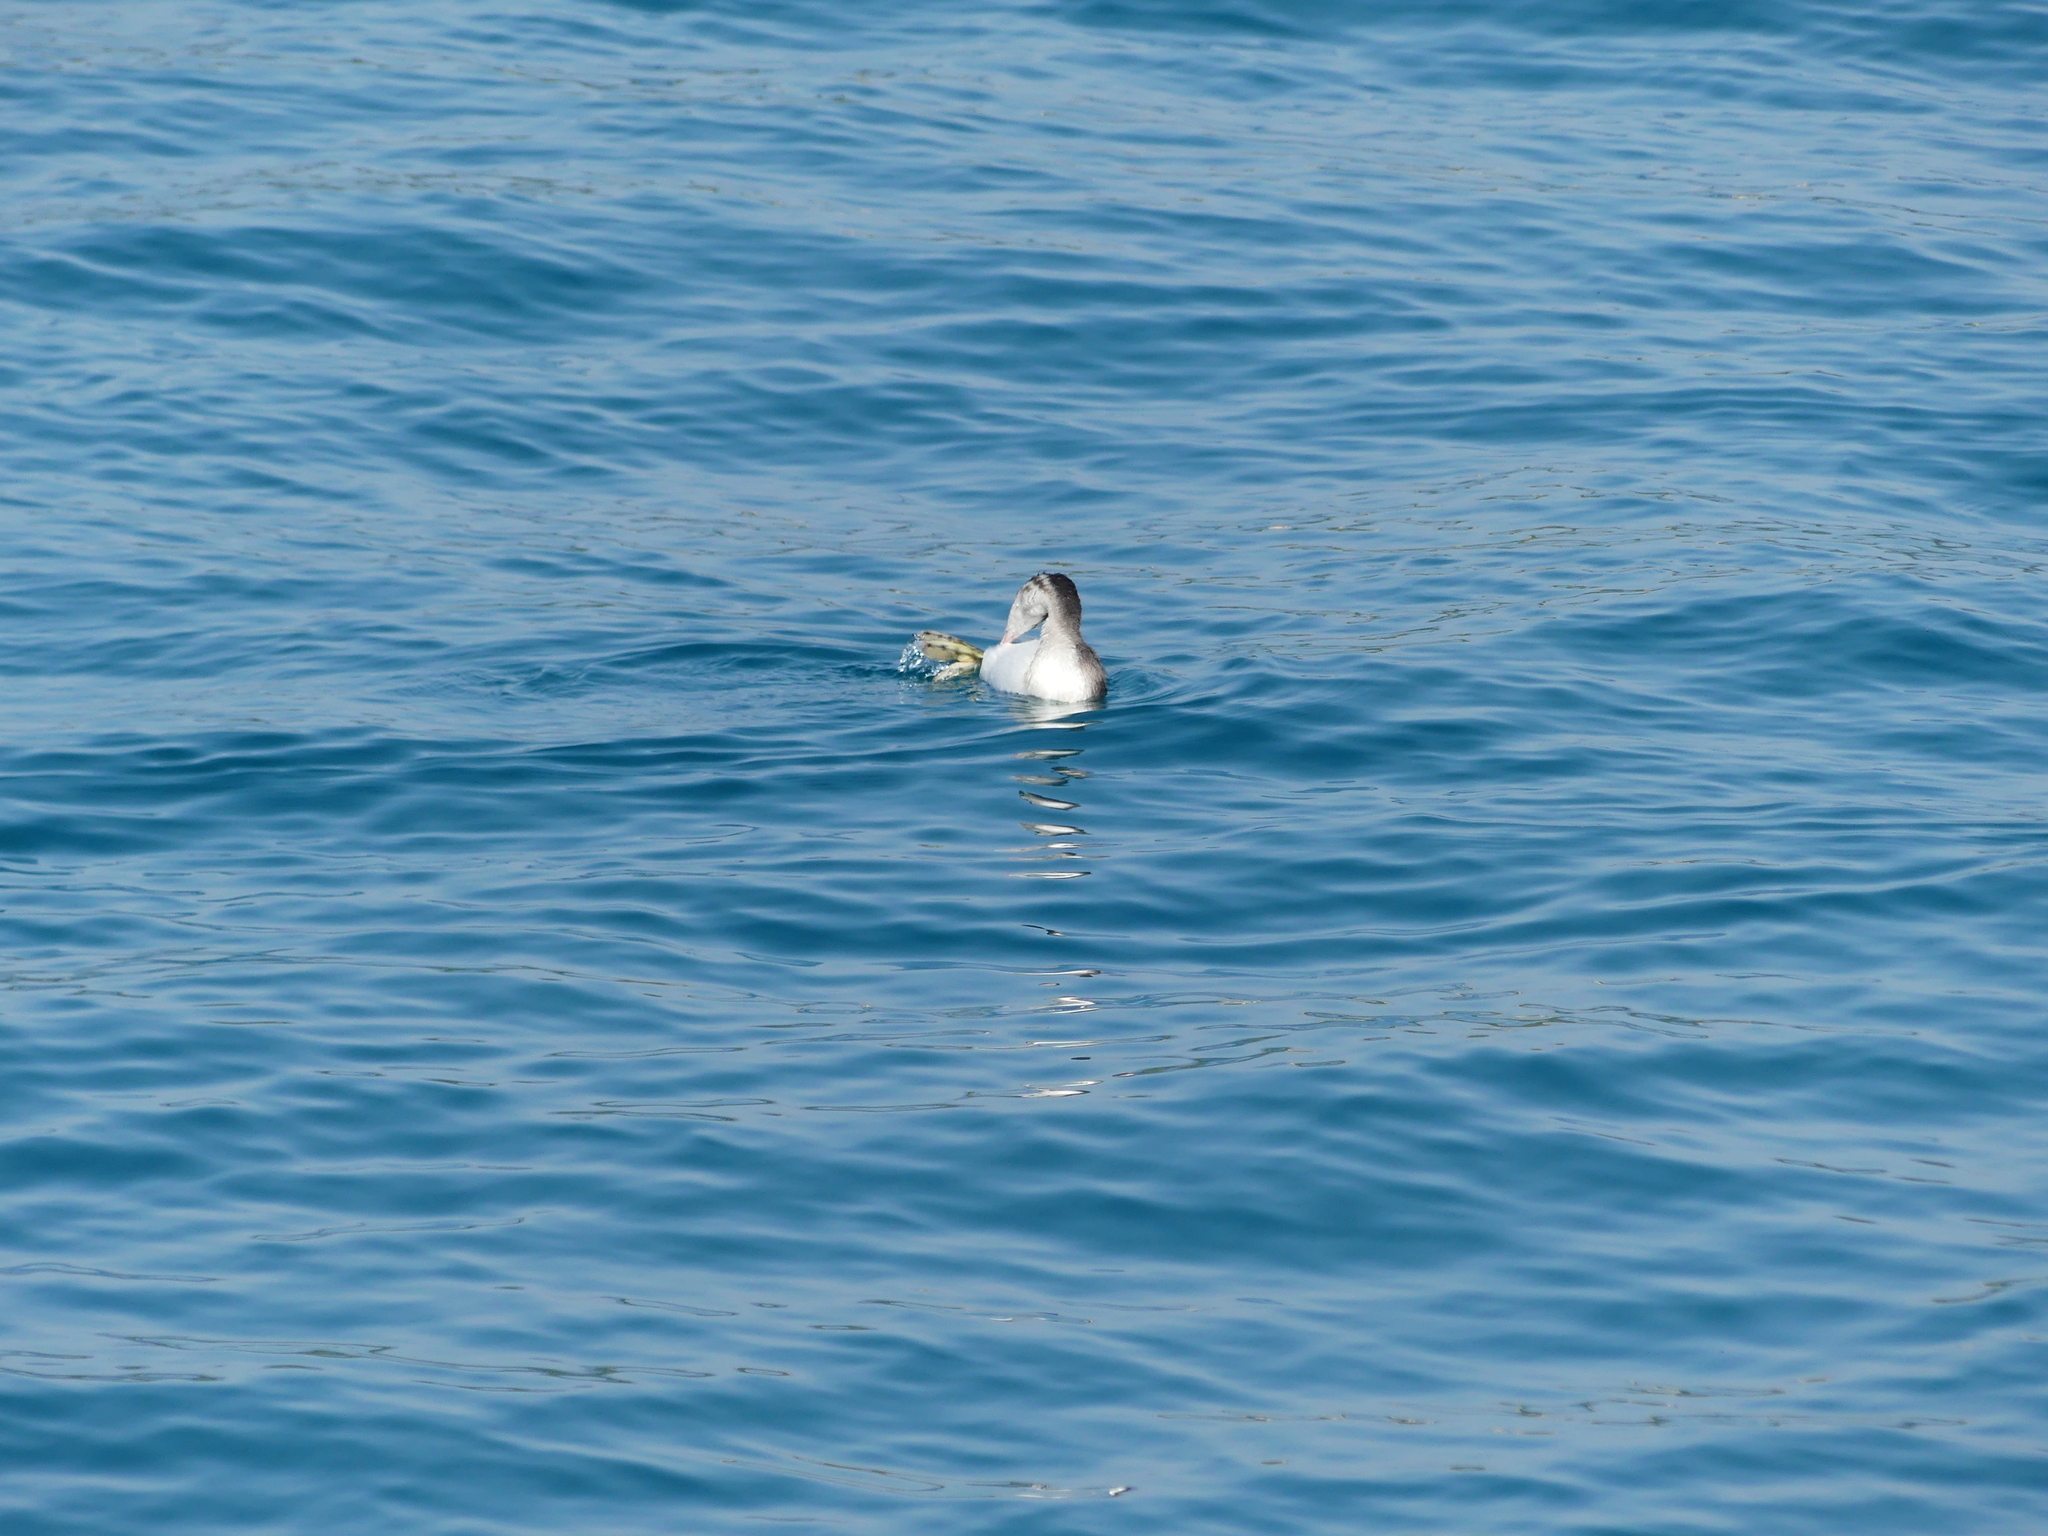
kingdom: Animalia
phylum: Chordata
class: Aves
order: Podicipediformes
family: Podicipedidae
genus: Podiceps
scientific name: Podiceps cristatus
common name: Great crested grebe
